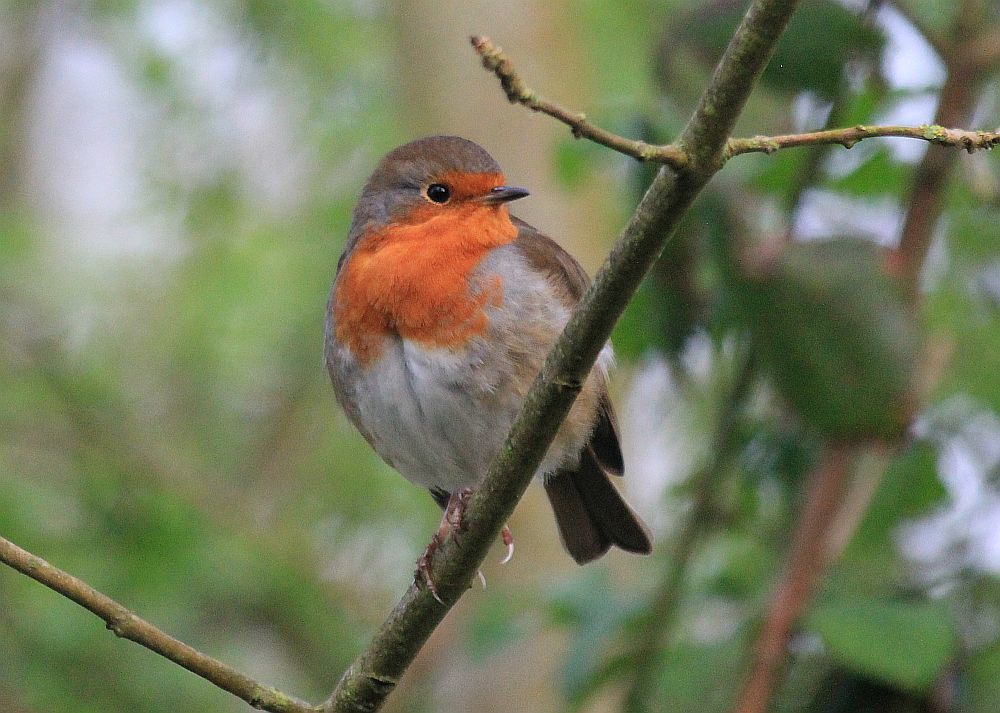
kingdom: Animalia
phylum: Chordata
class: Aves
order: Passeriformes
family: Muscicapidae
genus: Erithacus
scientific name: Erithacus rubecula
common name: European robin
